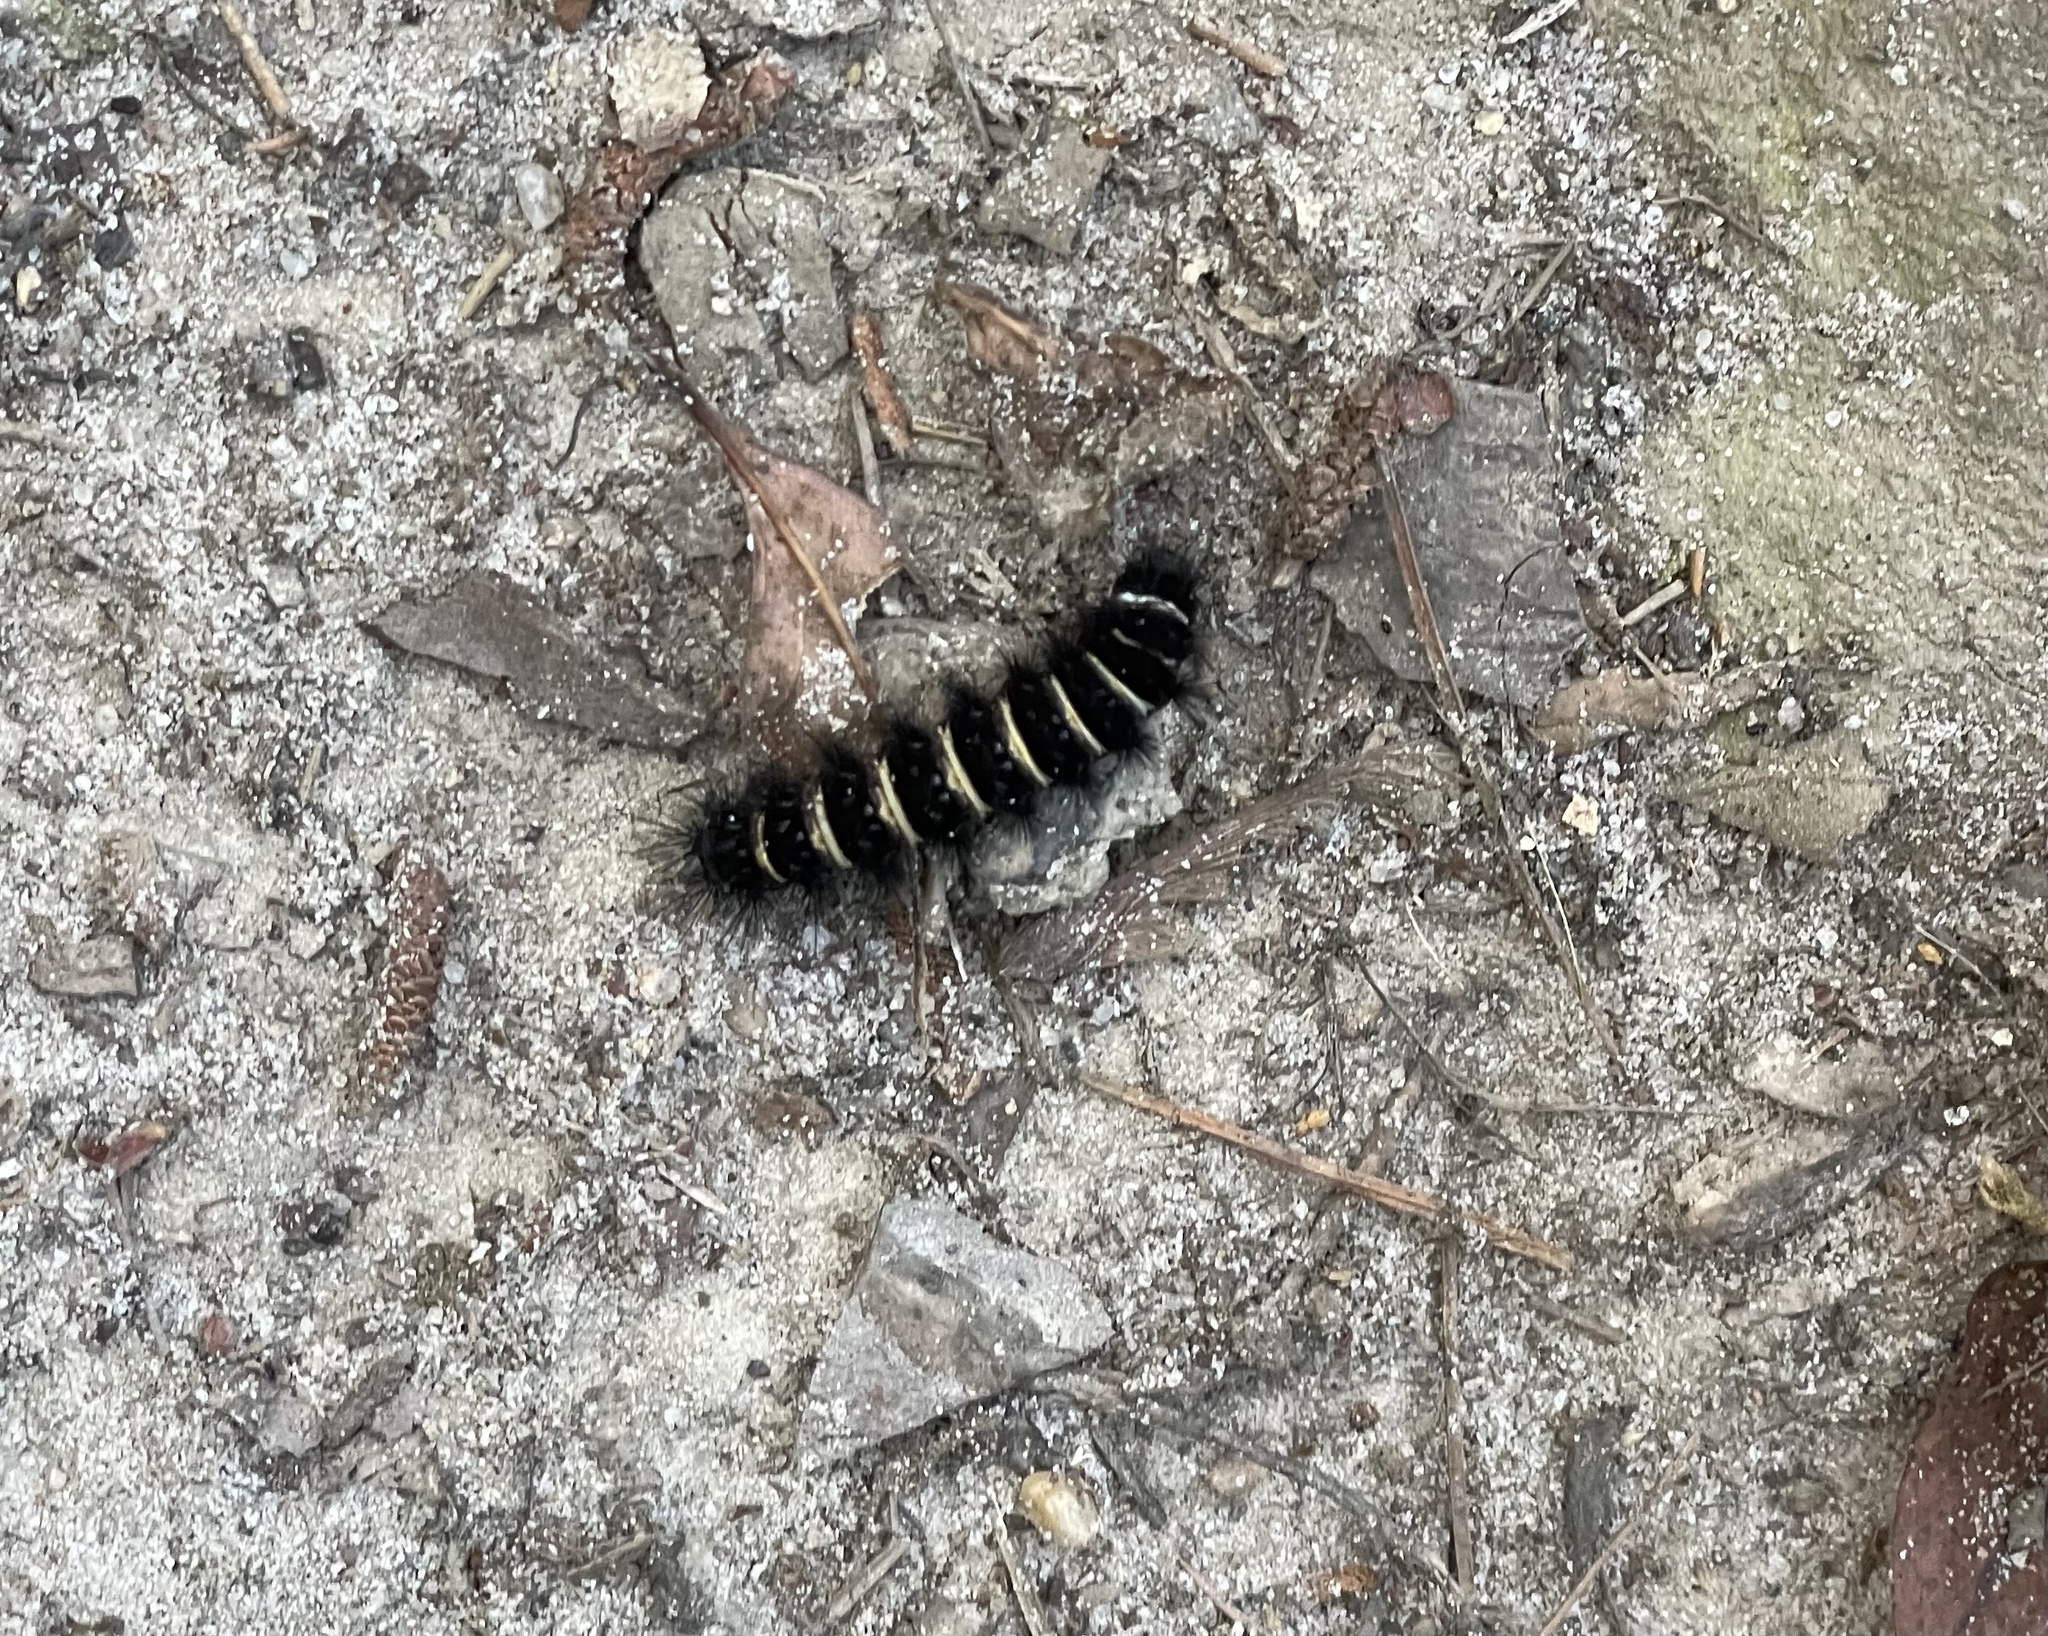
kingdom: Animalia
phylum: Arthropoda
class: Insecta
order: Lepidoptera
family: Erebidae
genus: Spilosoma
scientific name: Spilosoma congrua
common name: Agreeable tiger moth
